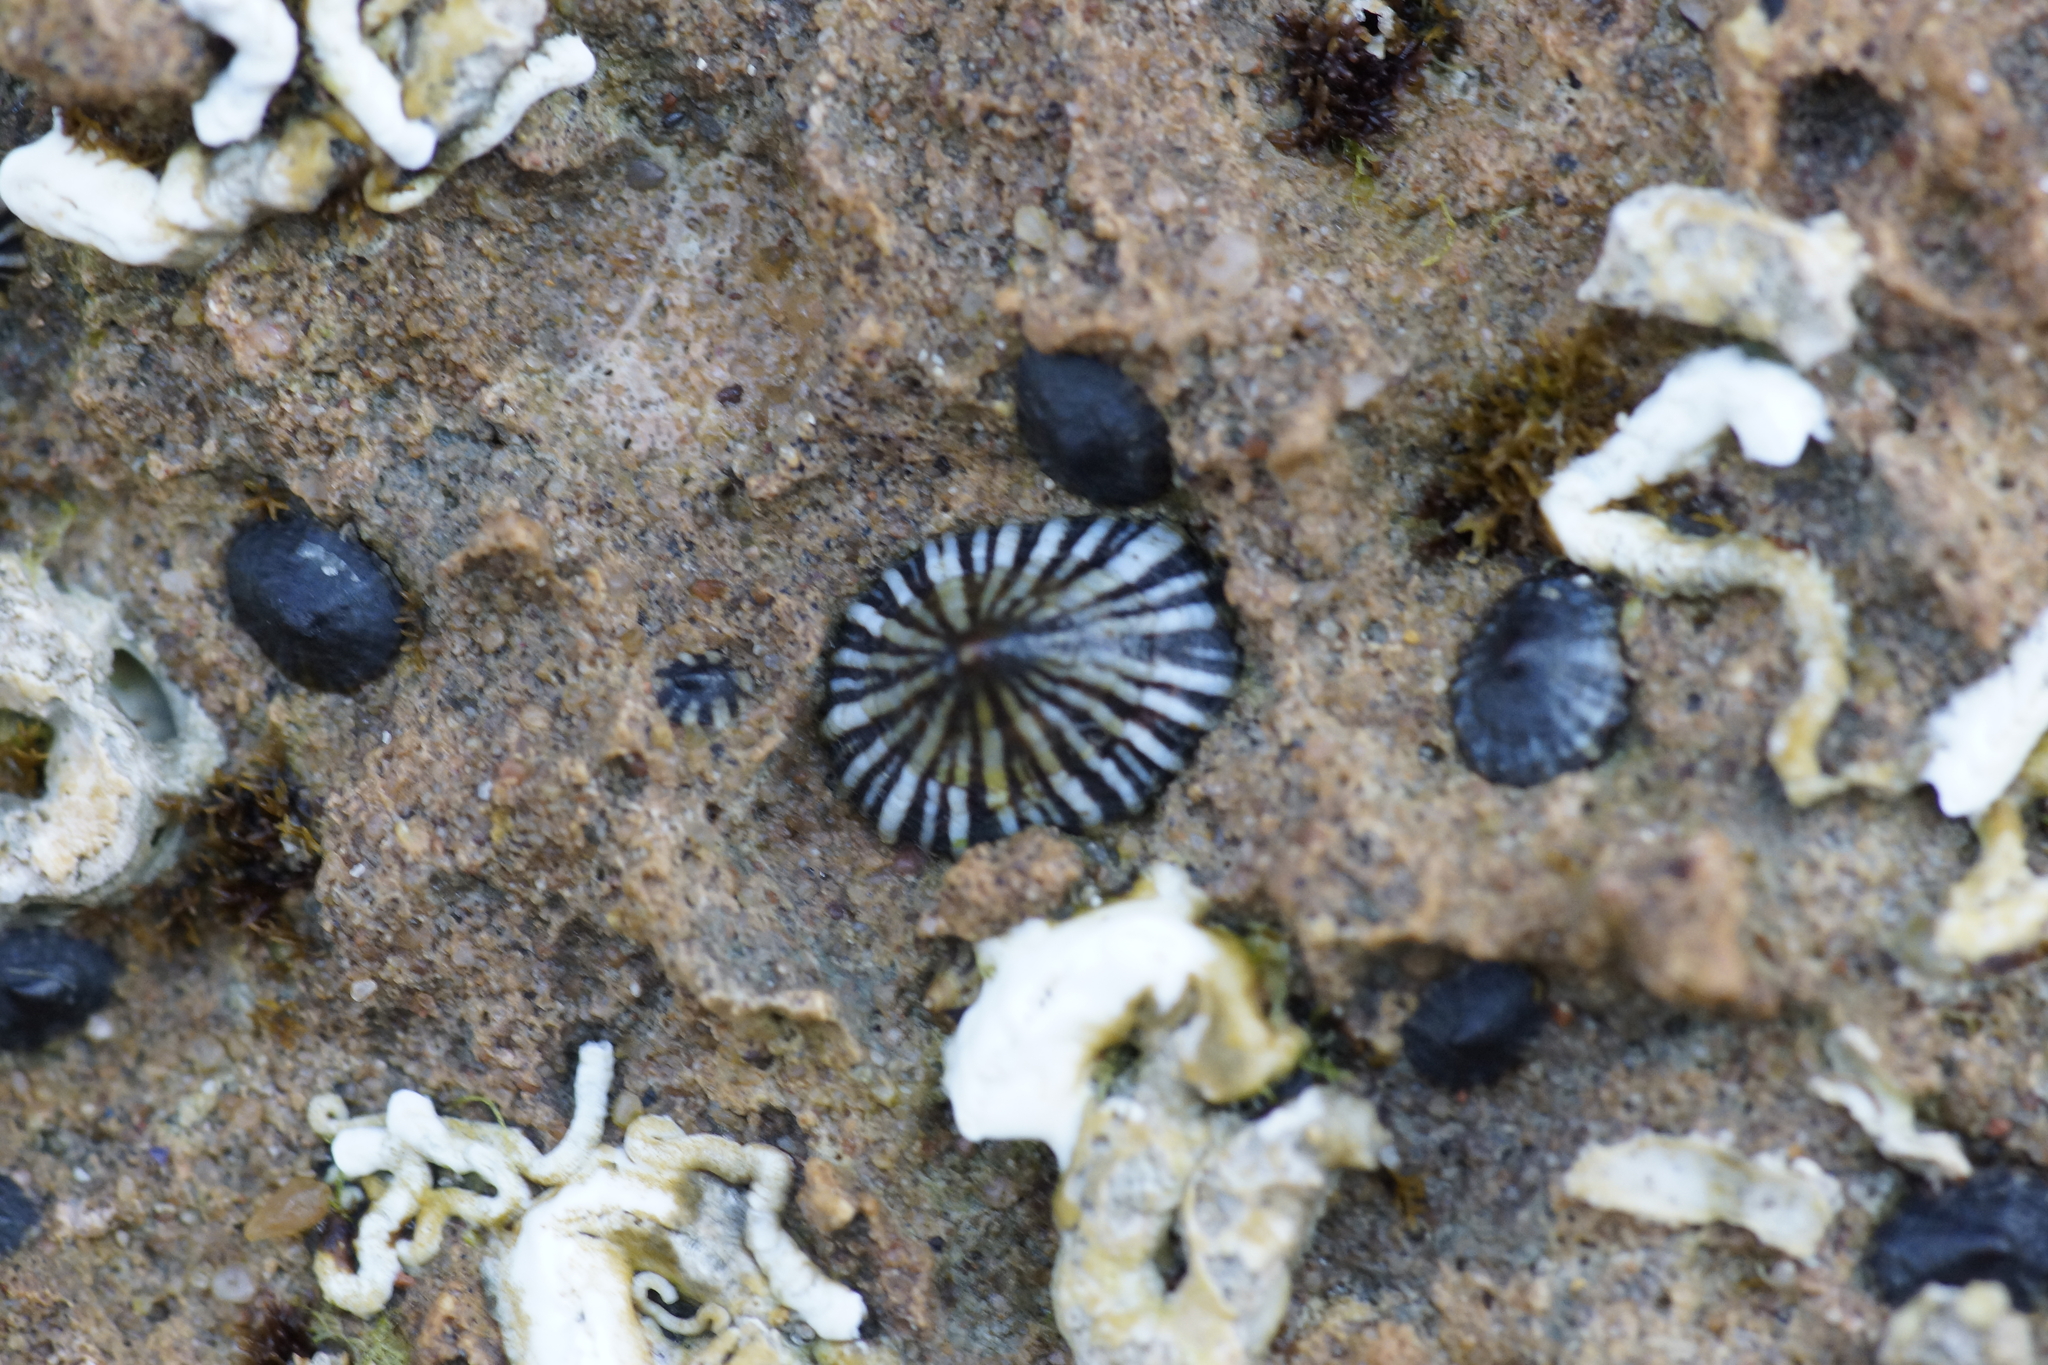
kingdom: Animalia
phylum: Mollusca
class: Gastropoda
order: Siphonariida
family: Siphonariidae
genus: Siphonaria
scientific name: Siphonaria diemenensis
